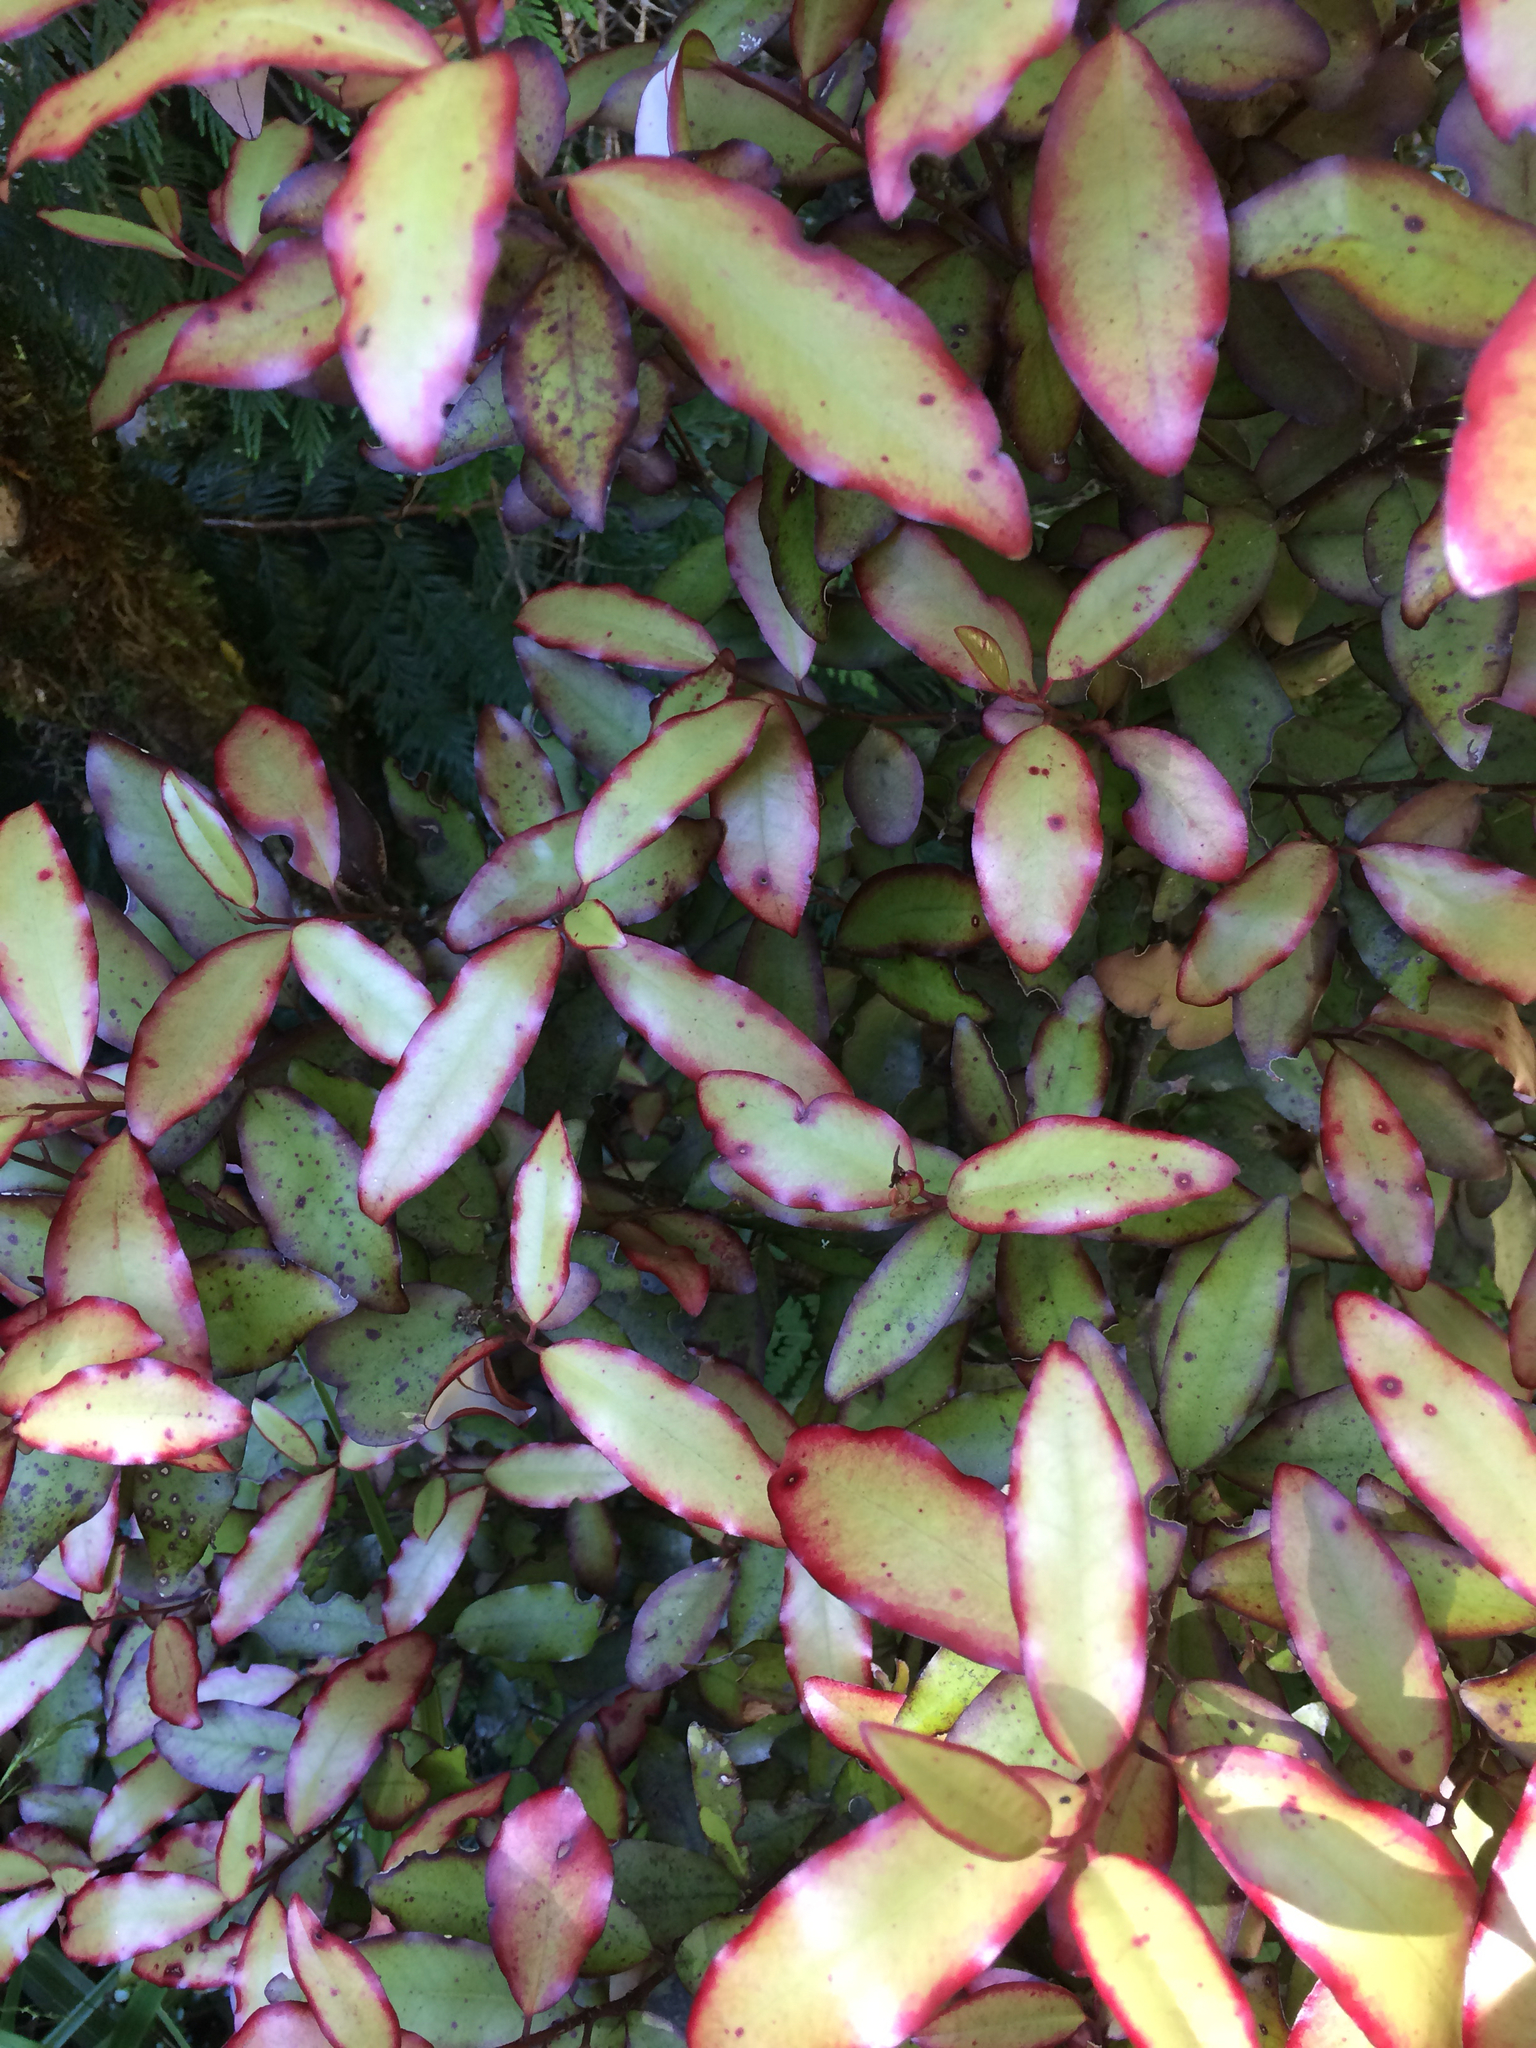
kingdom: Plantae
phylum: Tracheophyta
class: Magnoliopsida
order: Canellales
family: Winteraceae
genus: Pseudowintera
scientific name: Pseudowintera colorata
